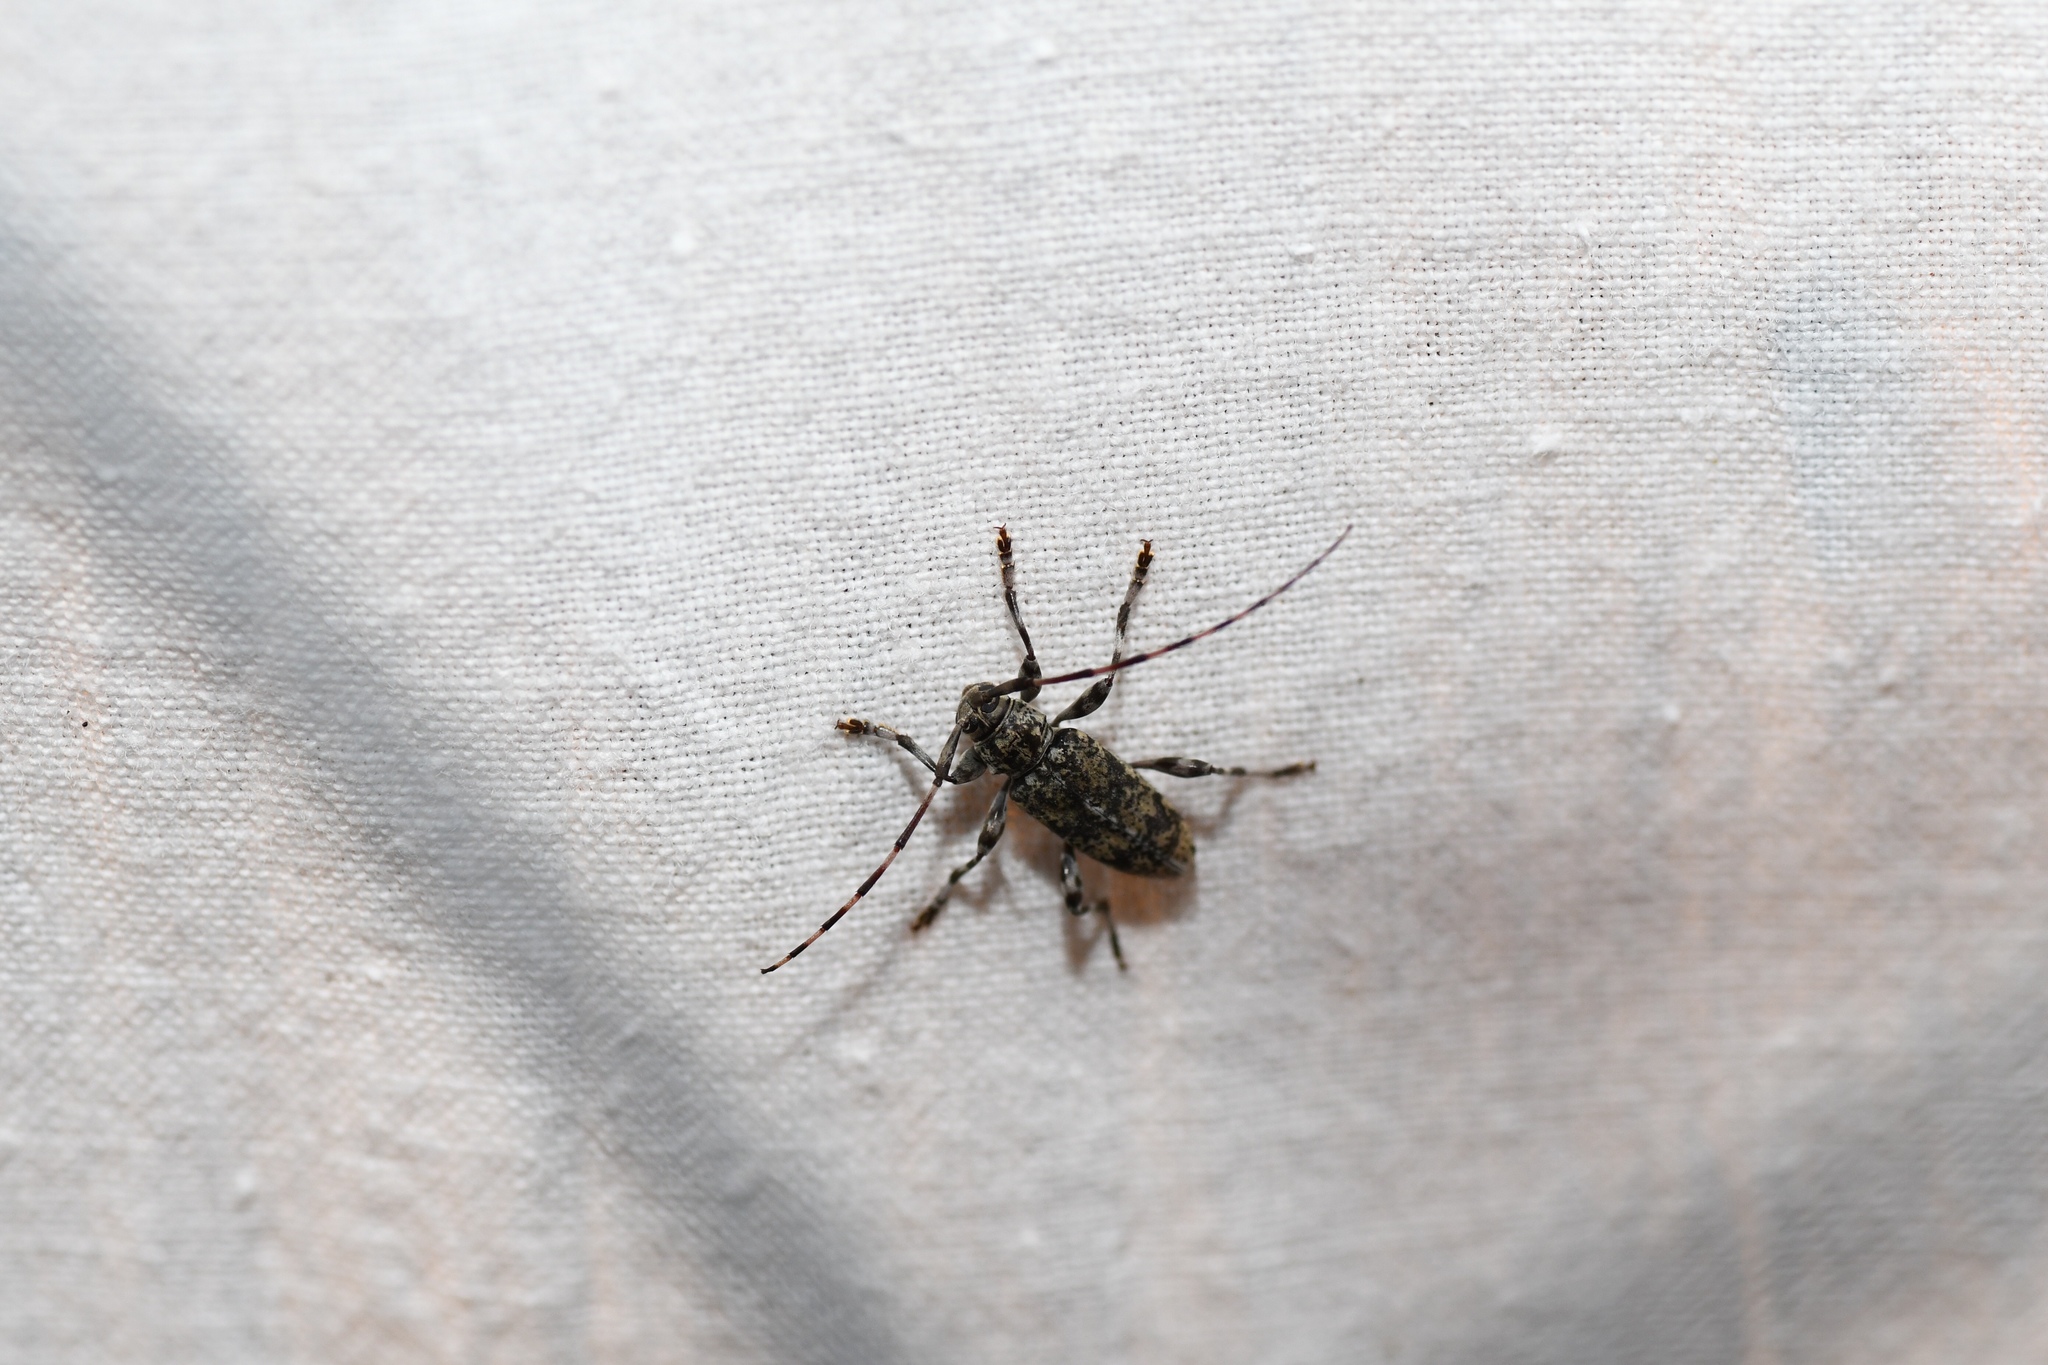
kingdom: Animalia
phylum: Arthropoda
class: Insecta
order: Coleoptera
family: Cerambycidae
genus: Graphisurus
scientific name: Graphisurus fasciatus
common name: Banded graphisurus
